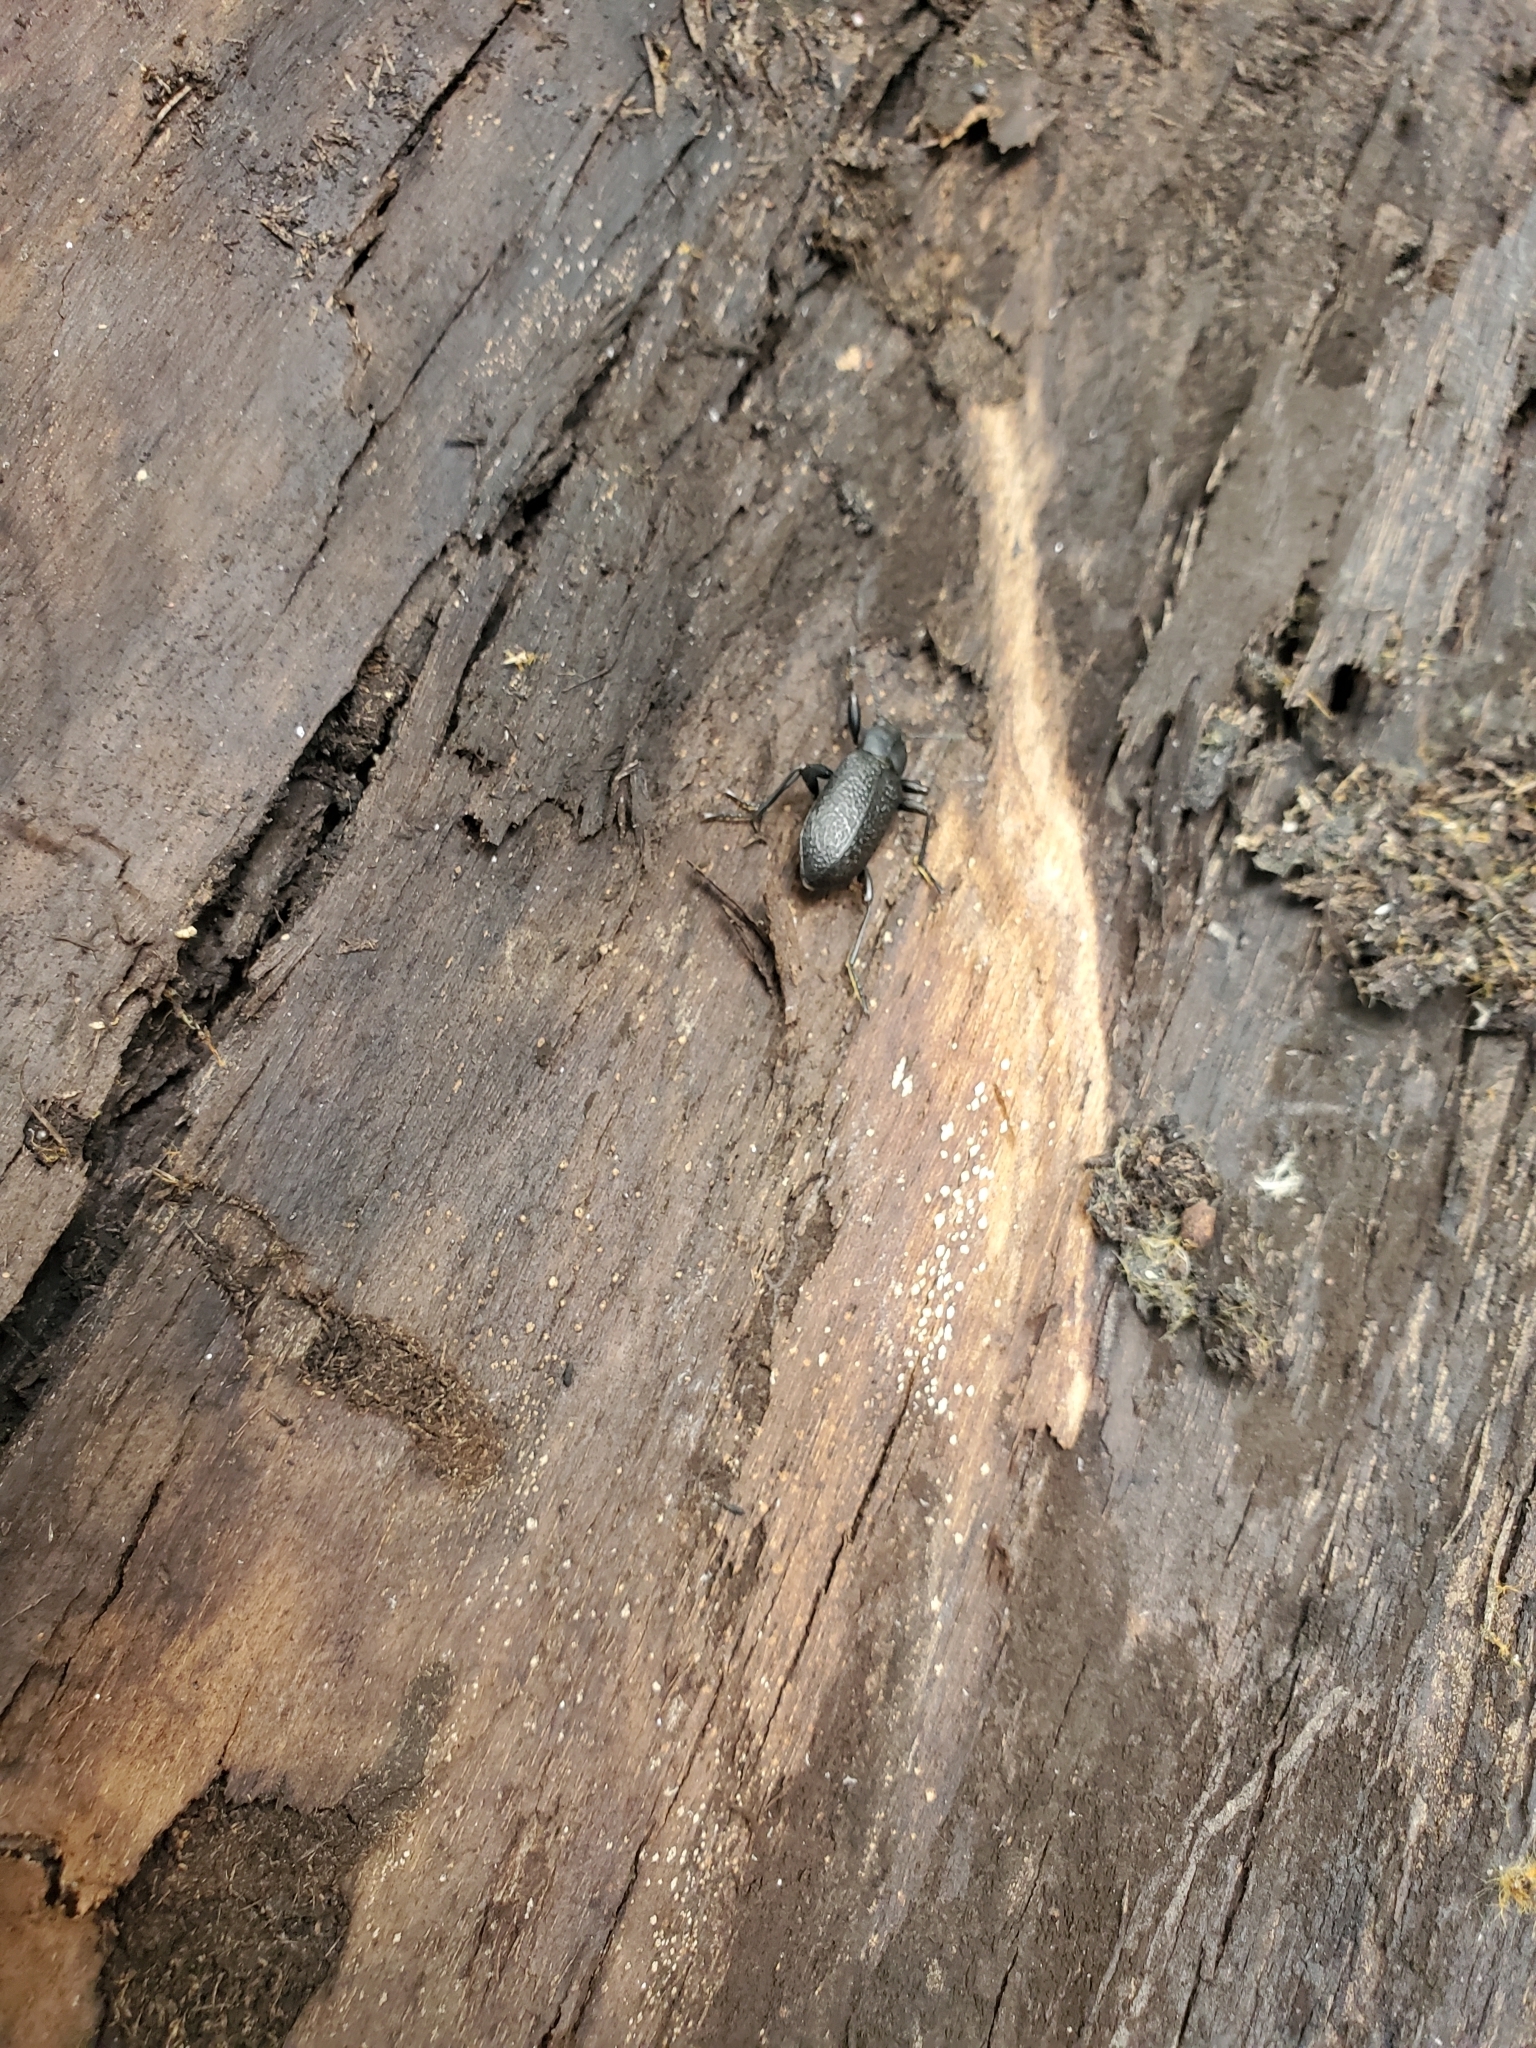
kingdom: Animalia
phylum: Arthropoda
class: Insecta
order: Coleoptera
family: Tenebrionidae
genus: Upis
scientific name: Upis ceramboides
